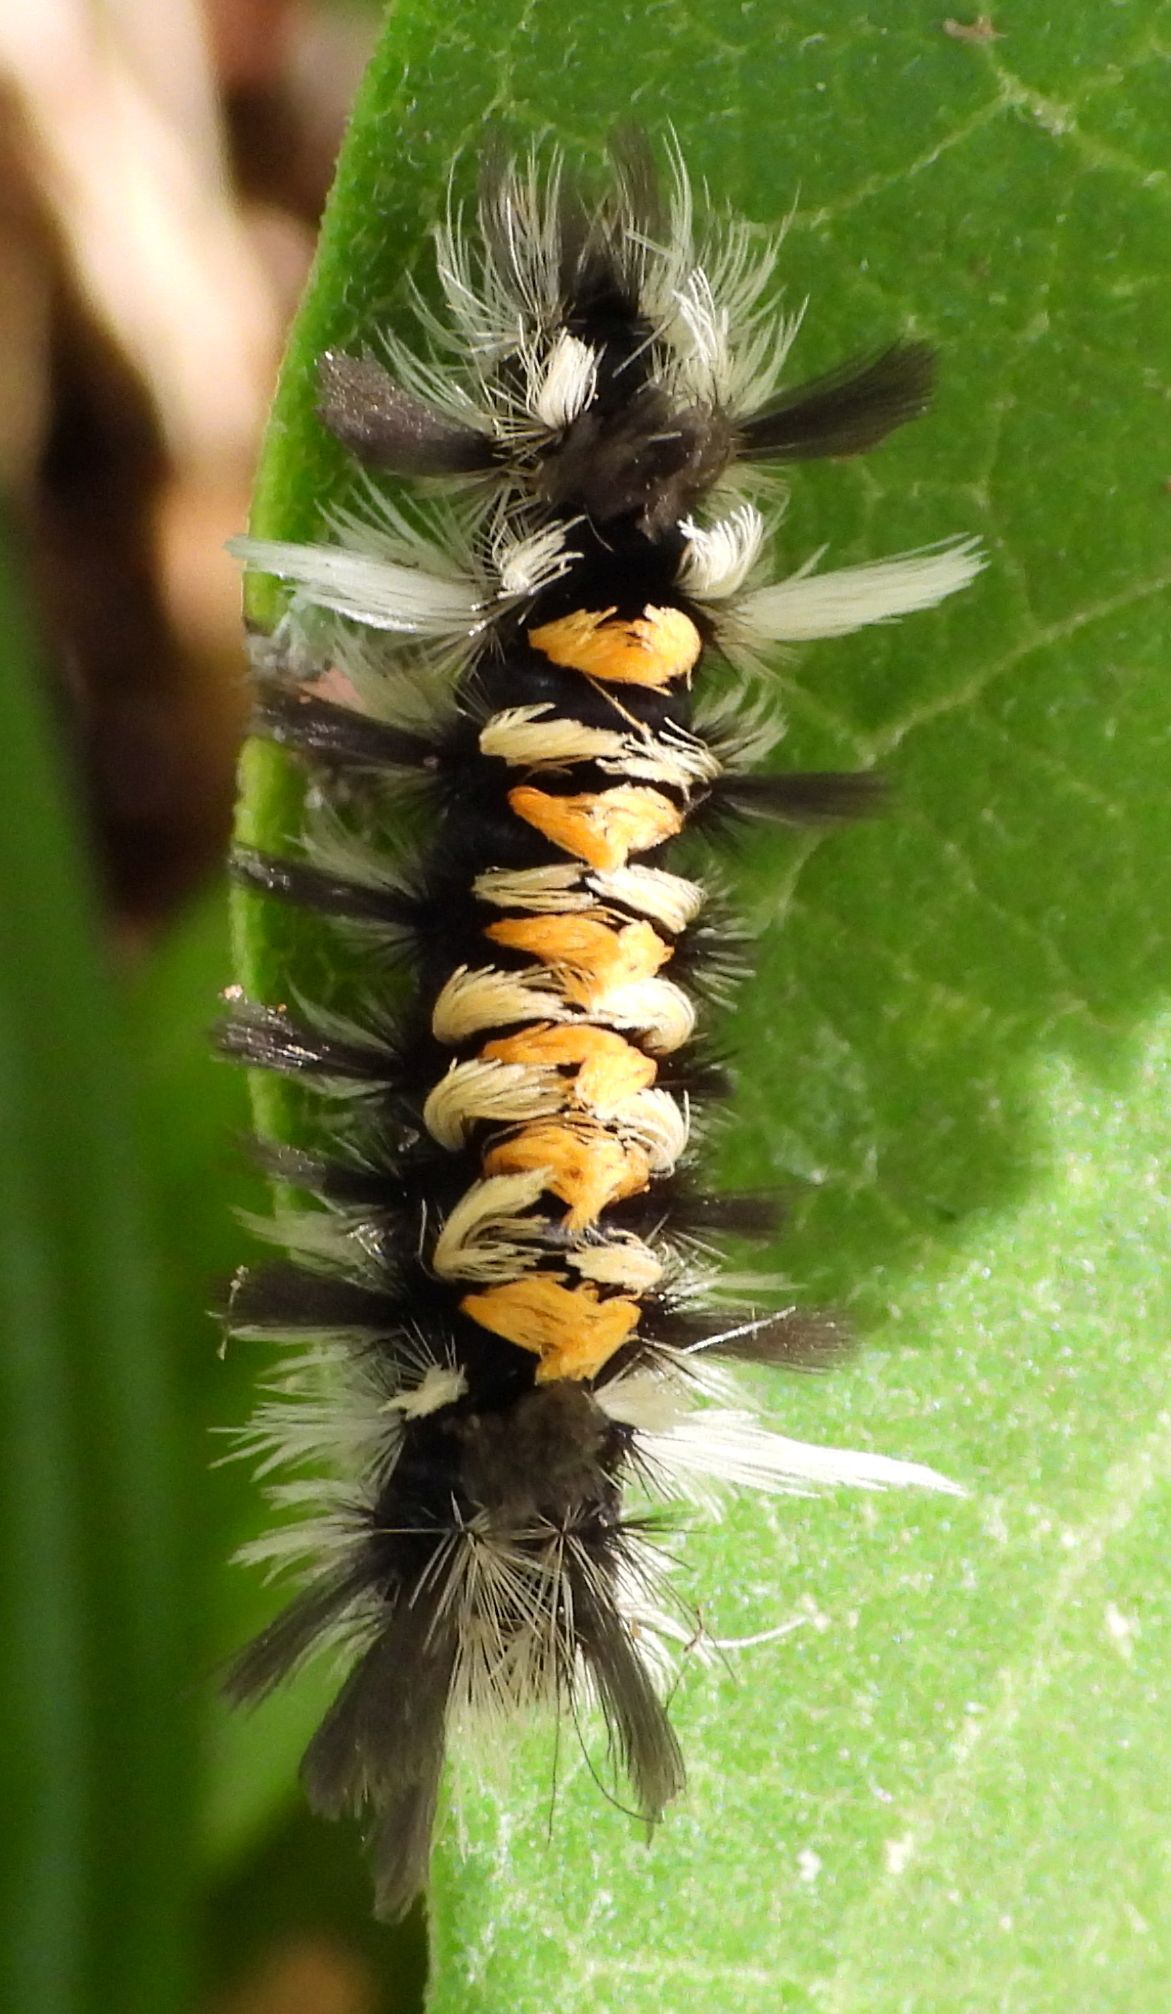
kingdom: Animalia
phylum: Arthropoda
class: Insecta
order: Lepidoptera
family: Erebidae
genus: Euchaetes
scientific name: Euchaetes egle
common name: Milkweed tussock moth
